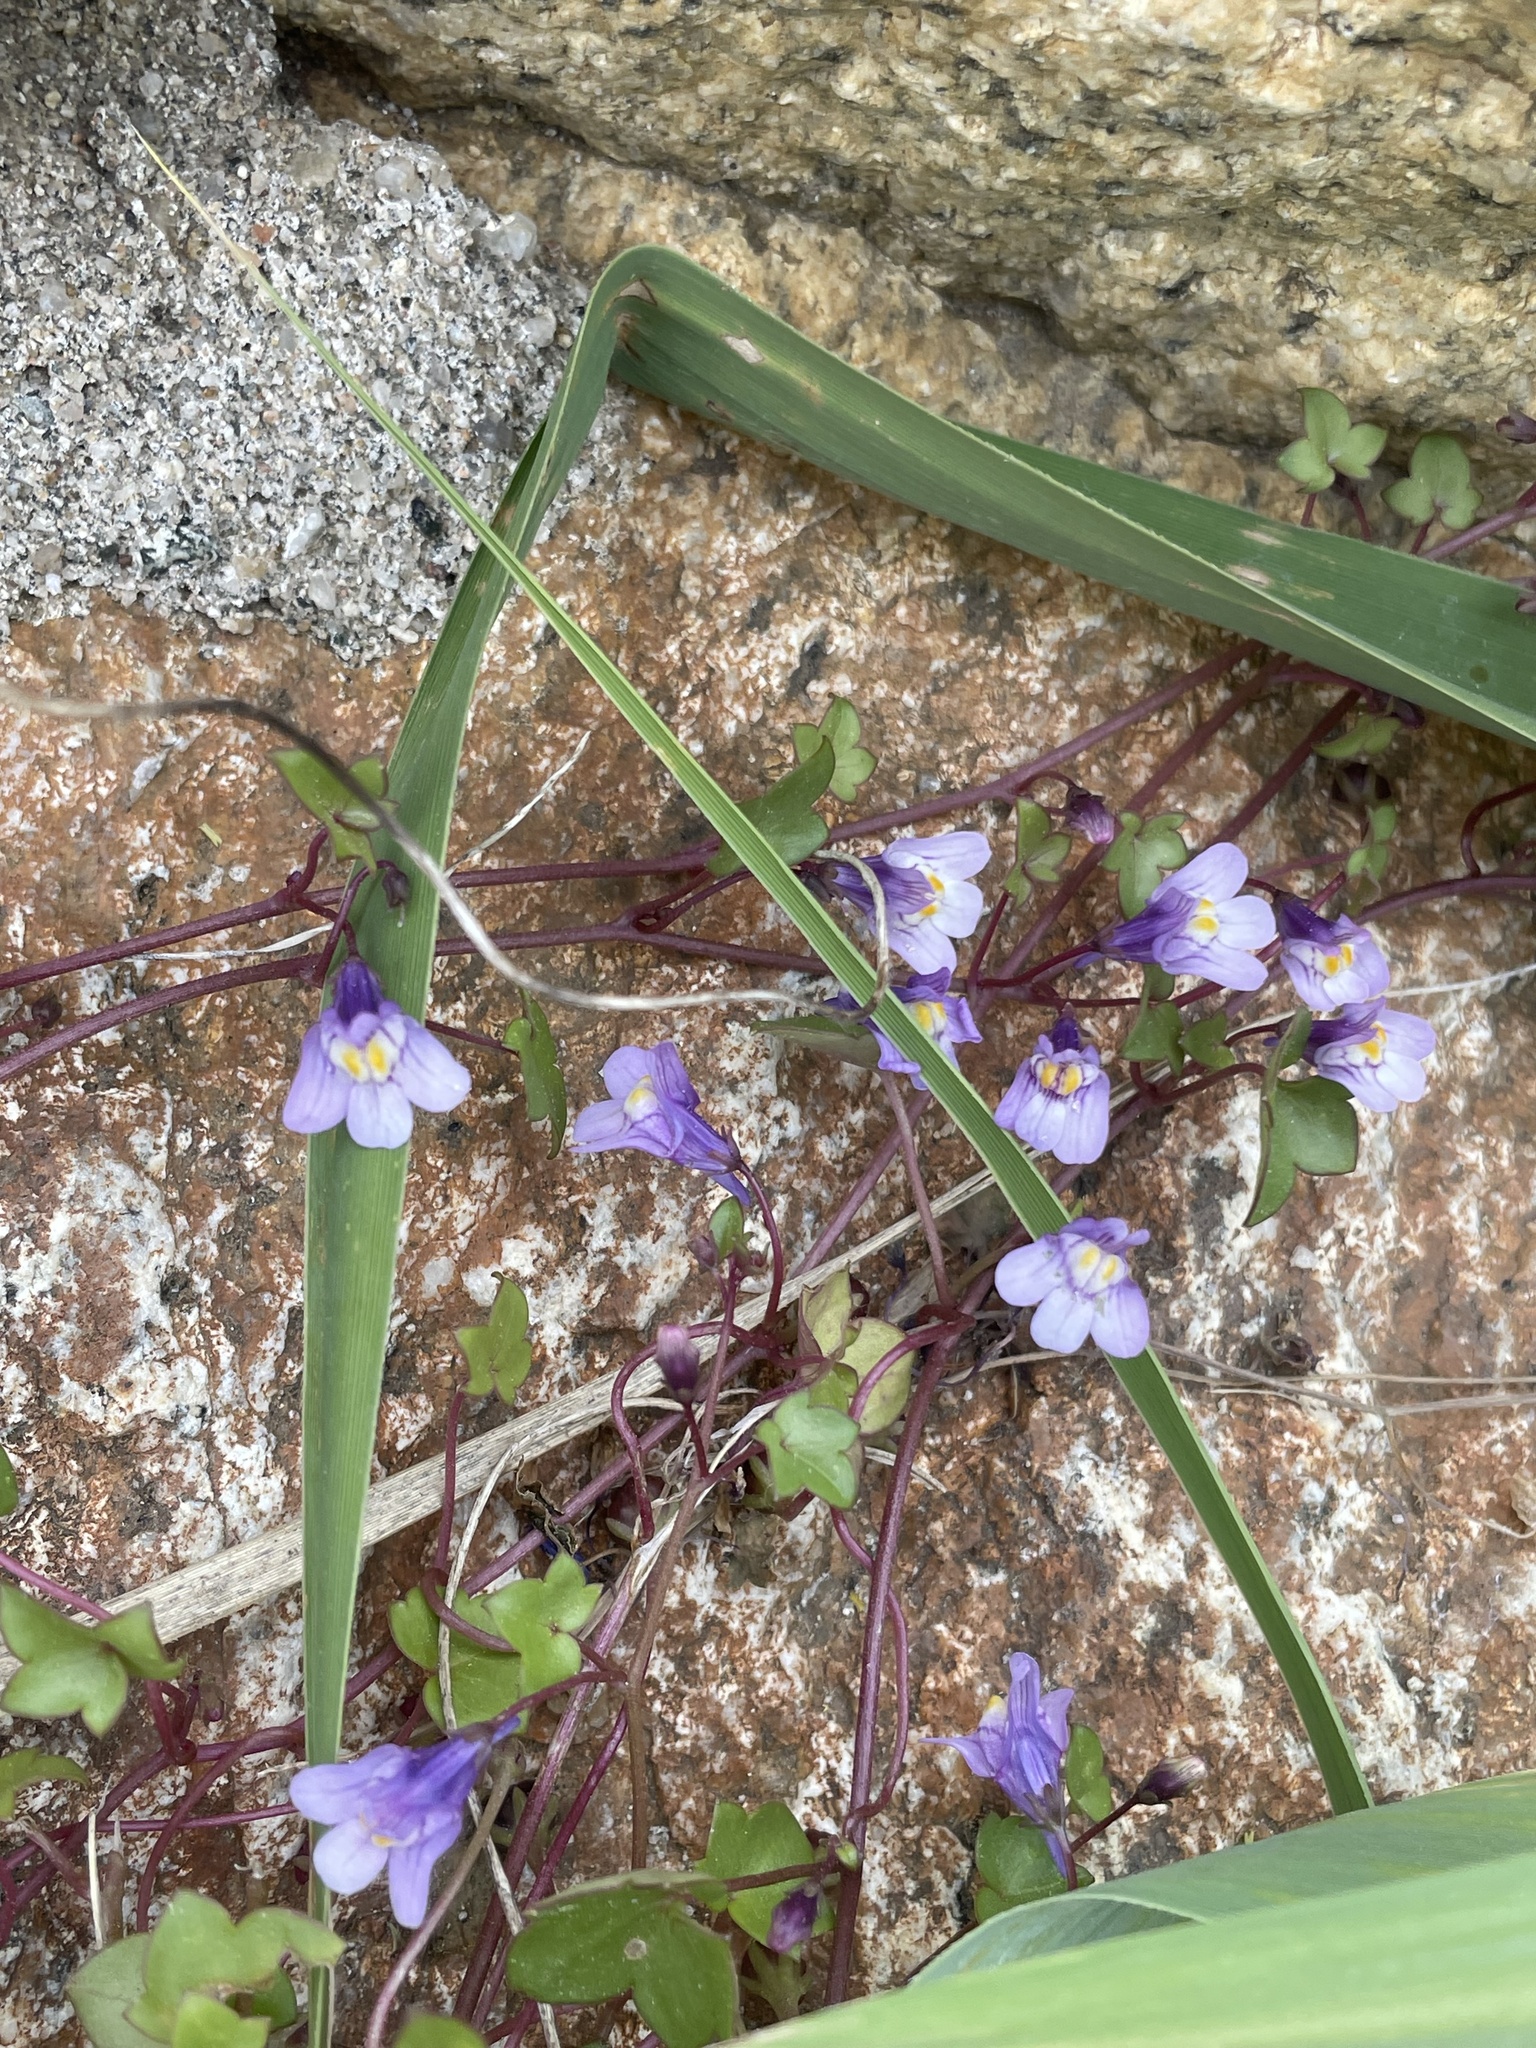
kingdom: Plantae
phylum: Tracheophyta
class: Magnoliopsida
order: Lamiales
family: Plantaginaceae
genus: Cymbalaria
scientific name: Cymbalaria muralis
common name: Ivy-leaved toadflax
